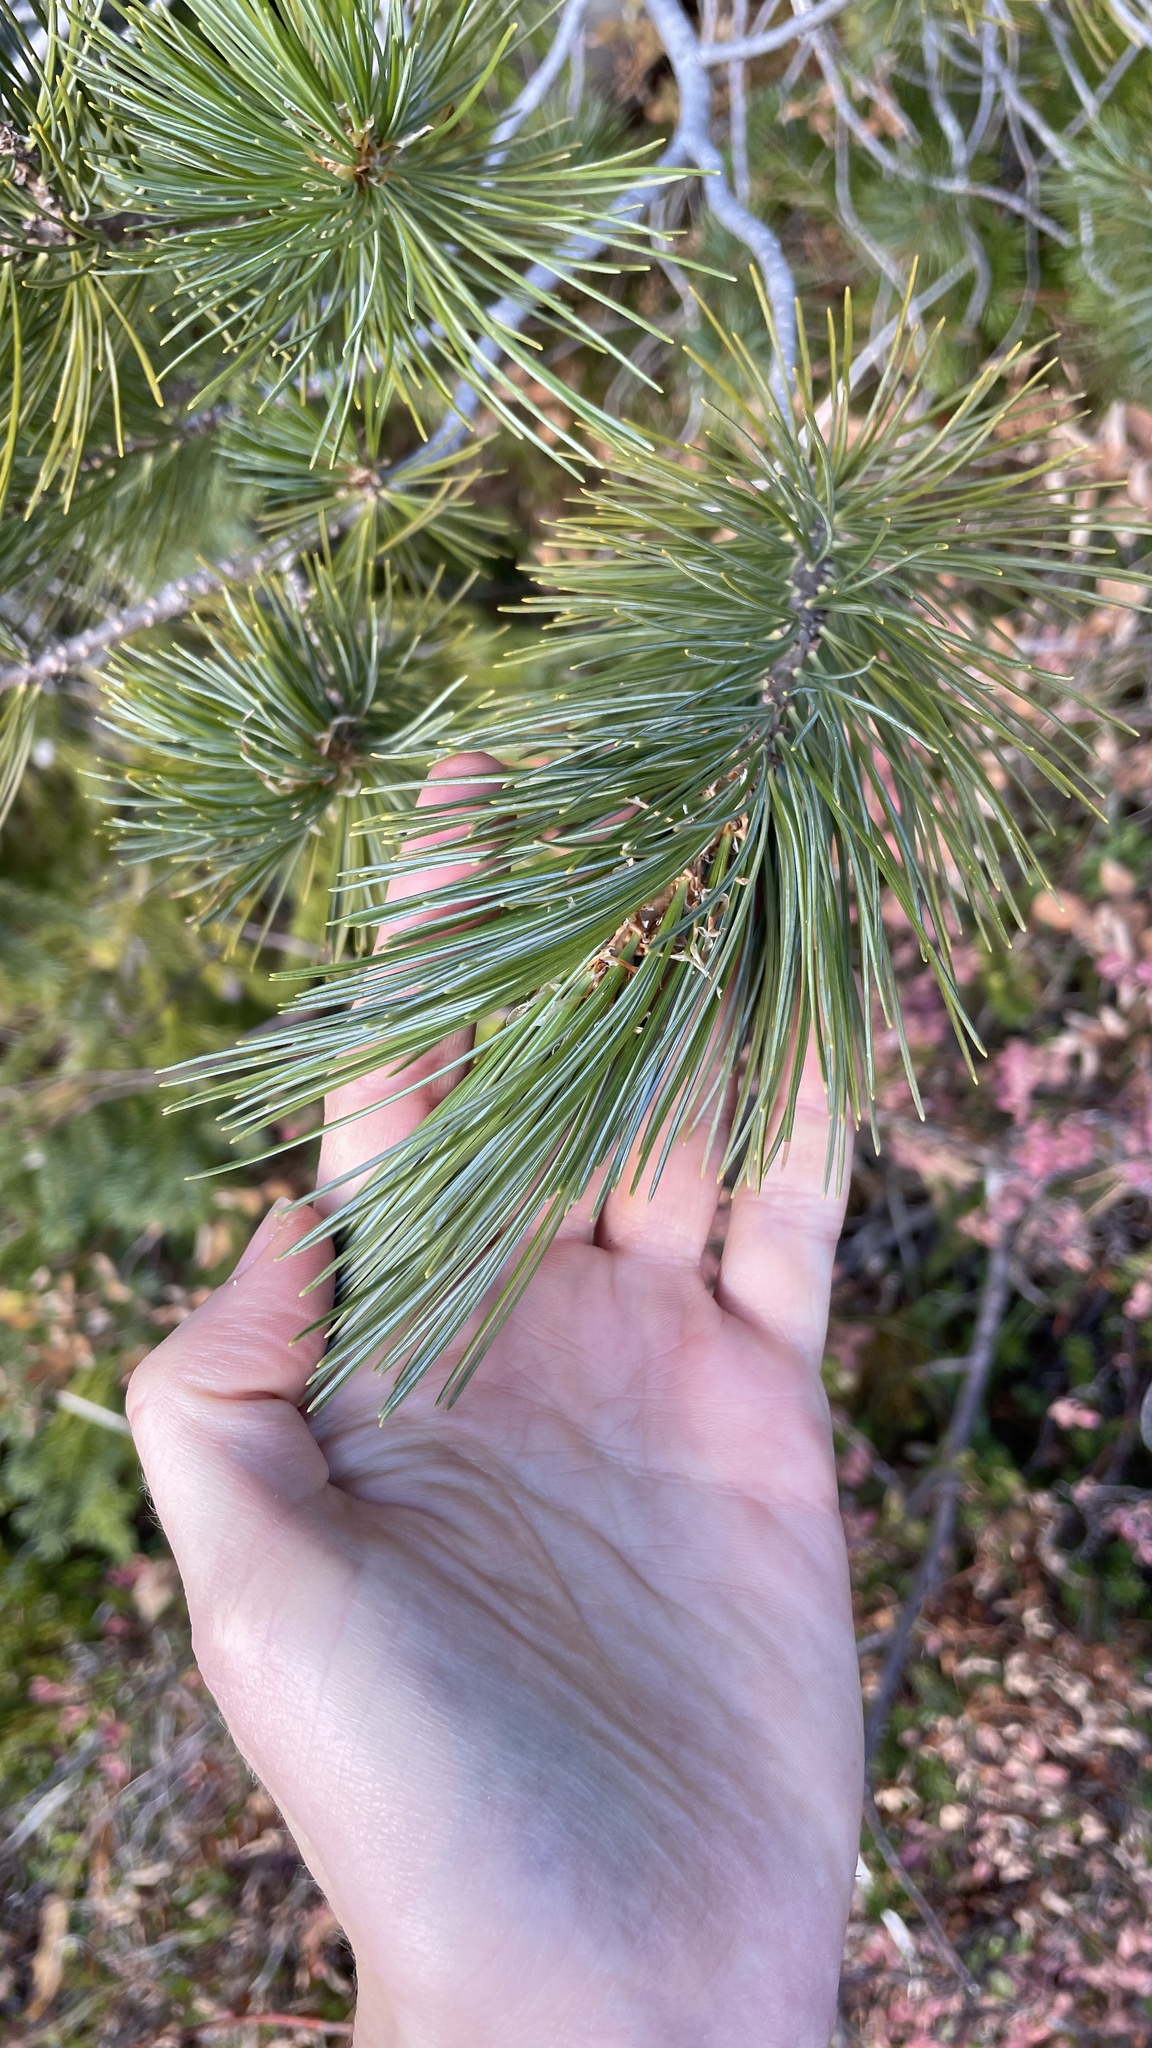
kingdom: Plantae
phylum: Tracheophyta
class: Pinopsida
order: Pinales
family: Pinaceae
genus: Pinus
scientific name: Pinus monticola
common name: Western white pine
